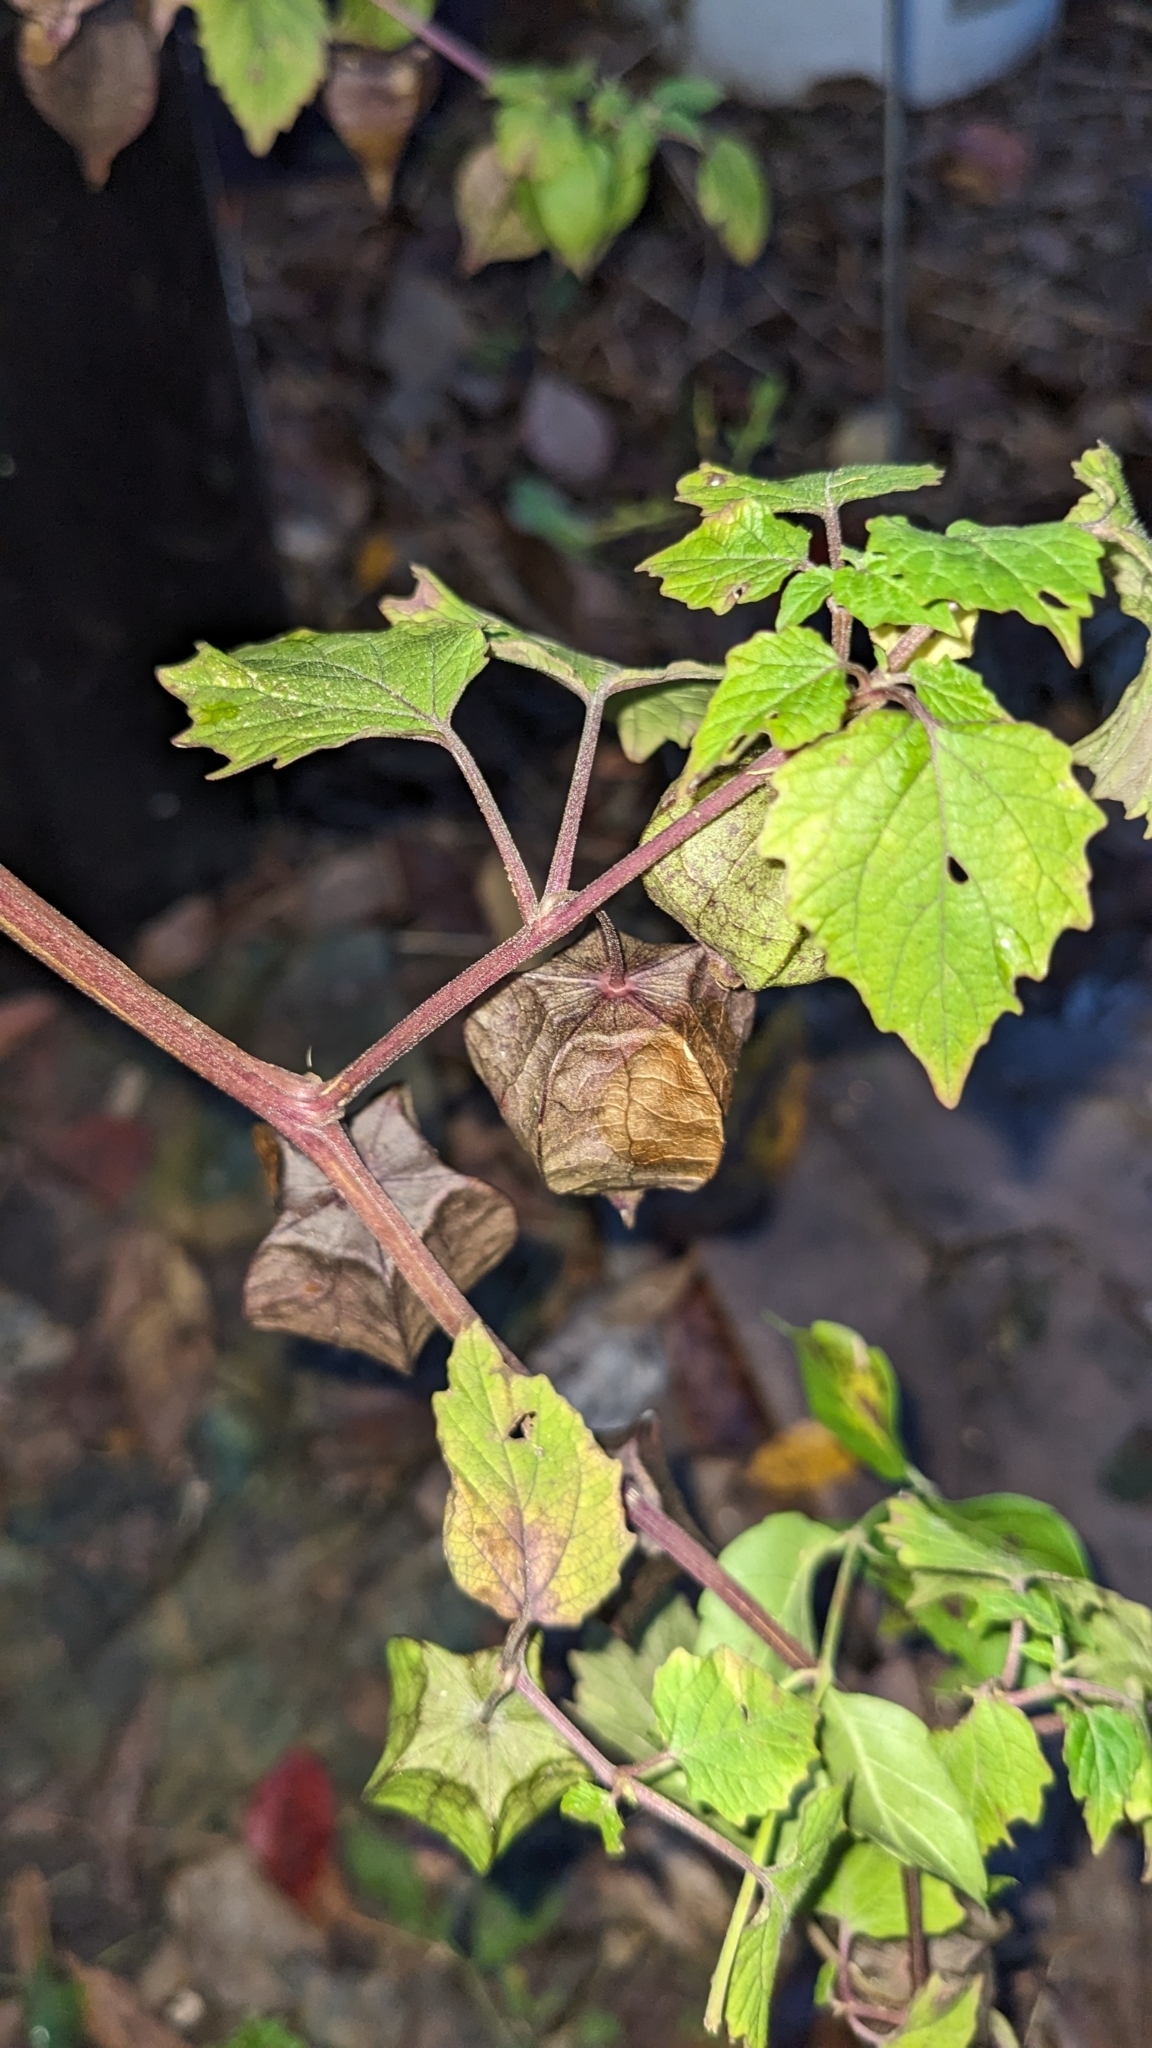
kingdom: Plantae
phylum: Tracheophyta
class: Magnoliopsida
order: Solanales
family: Solanaceae
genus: Physalis
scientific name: Physalis cordata
